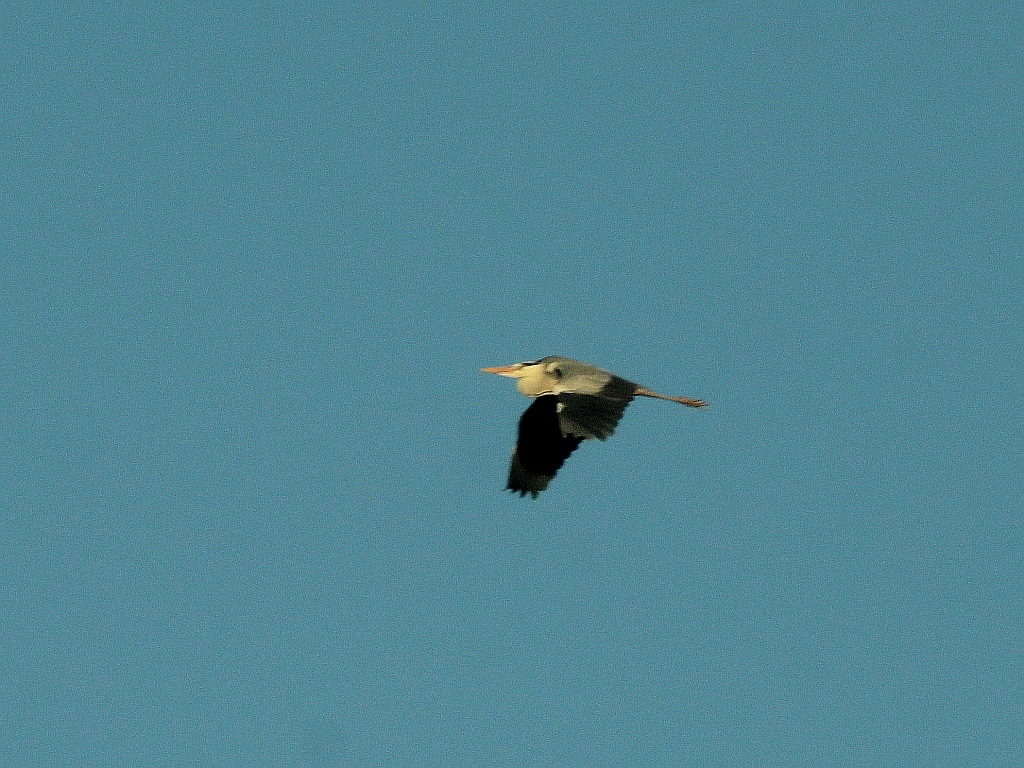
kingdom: Animalia
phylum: Chordata
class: Aves
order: Pelecaniformes
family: Ardeidae
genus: Ardea
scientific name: Ardea cinerea
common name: Grey heron
